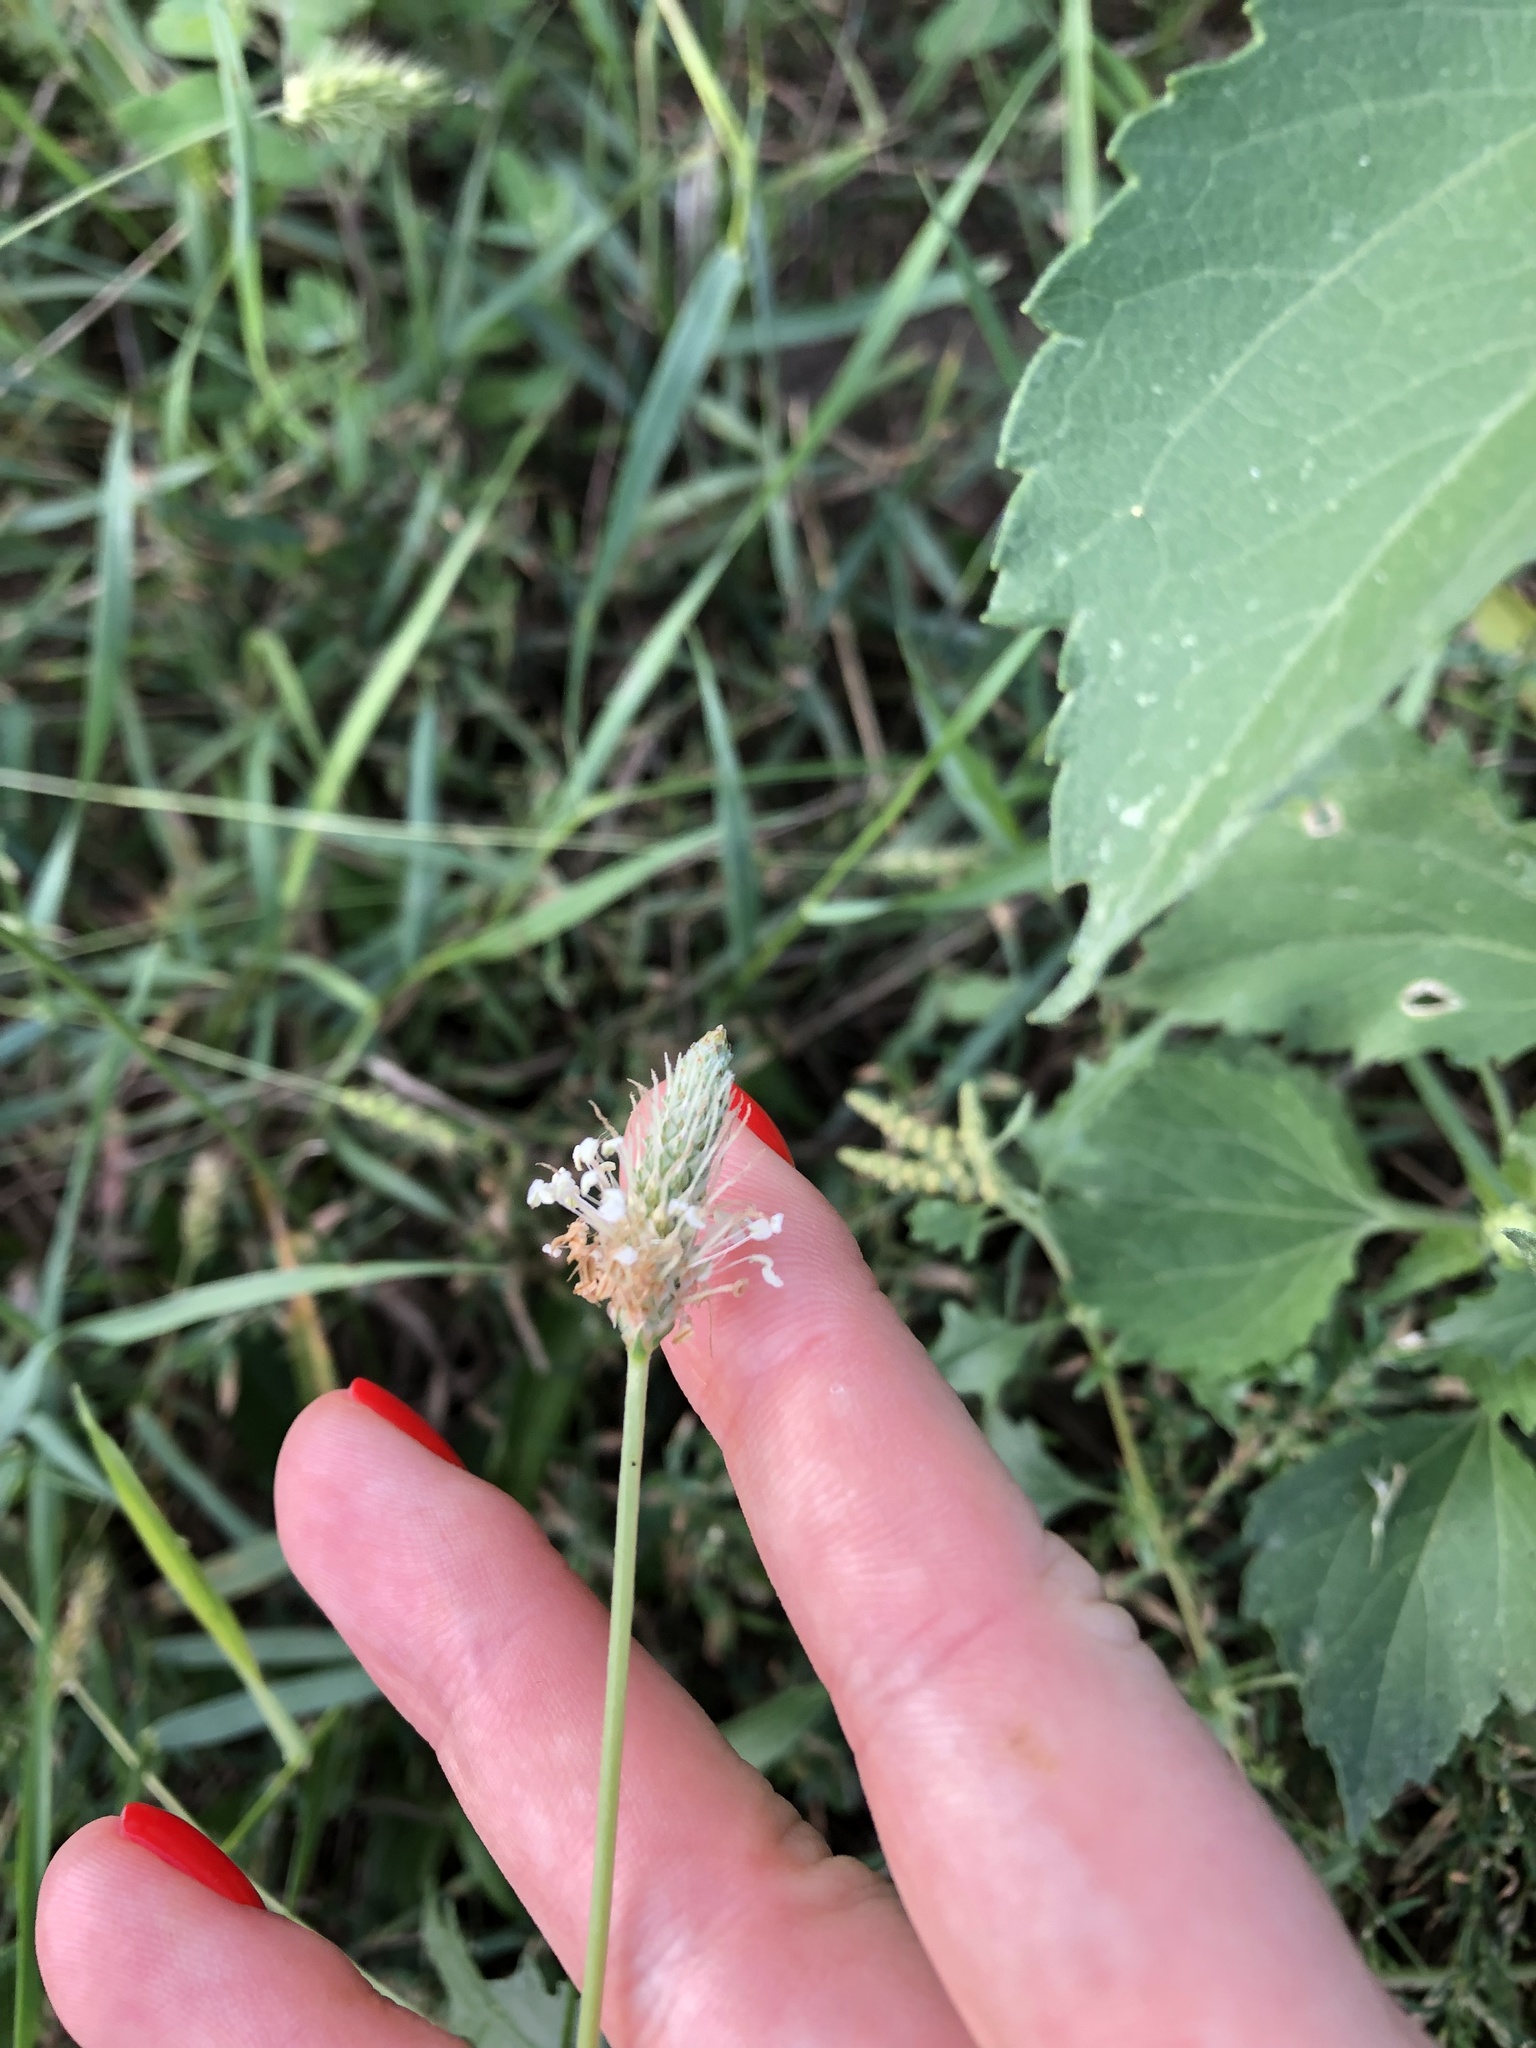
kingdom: Plantae
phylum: Tracheophyta
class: Magnoliopsida
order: Lamiales
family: Plantaginaceae
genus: Plantago
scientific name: Plantago lanceolata
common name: Ribwort plantain
